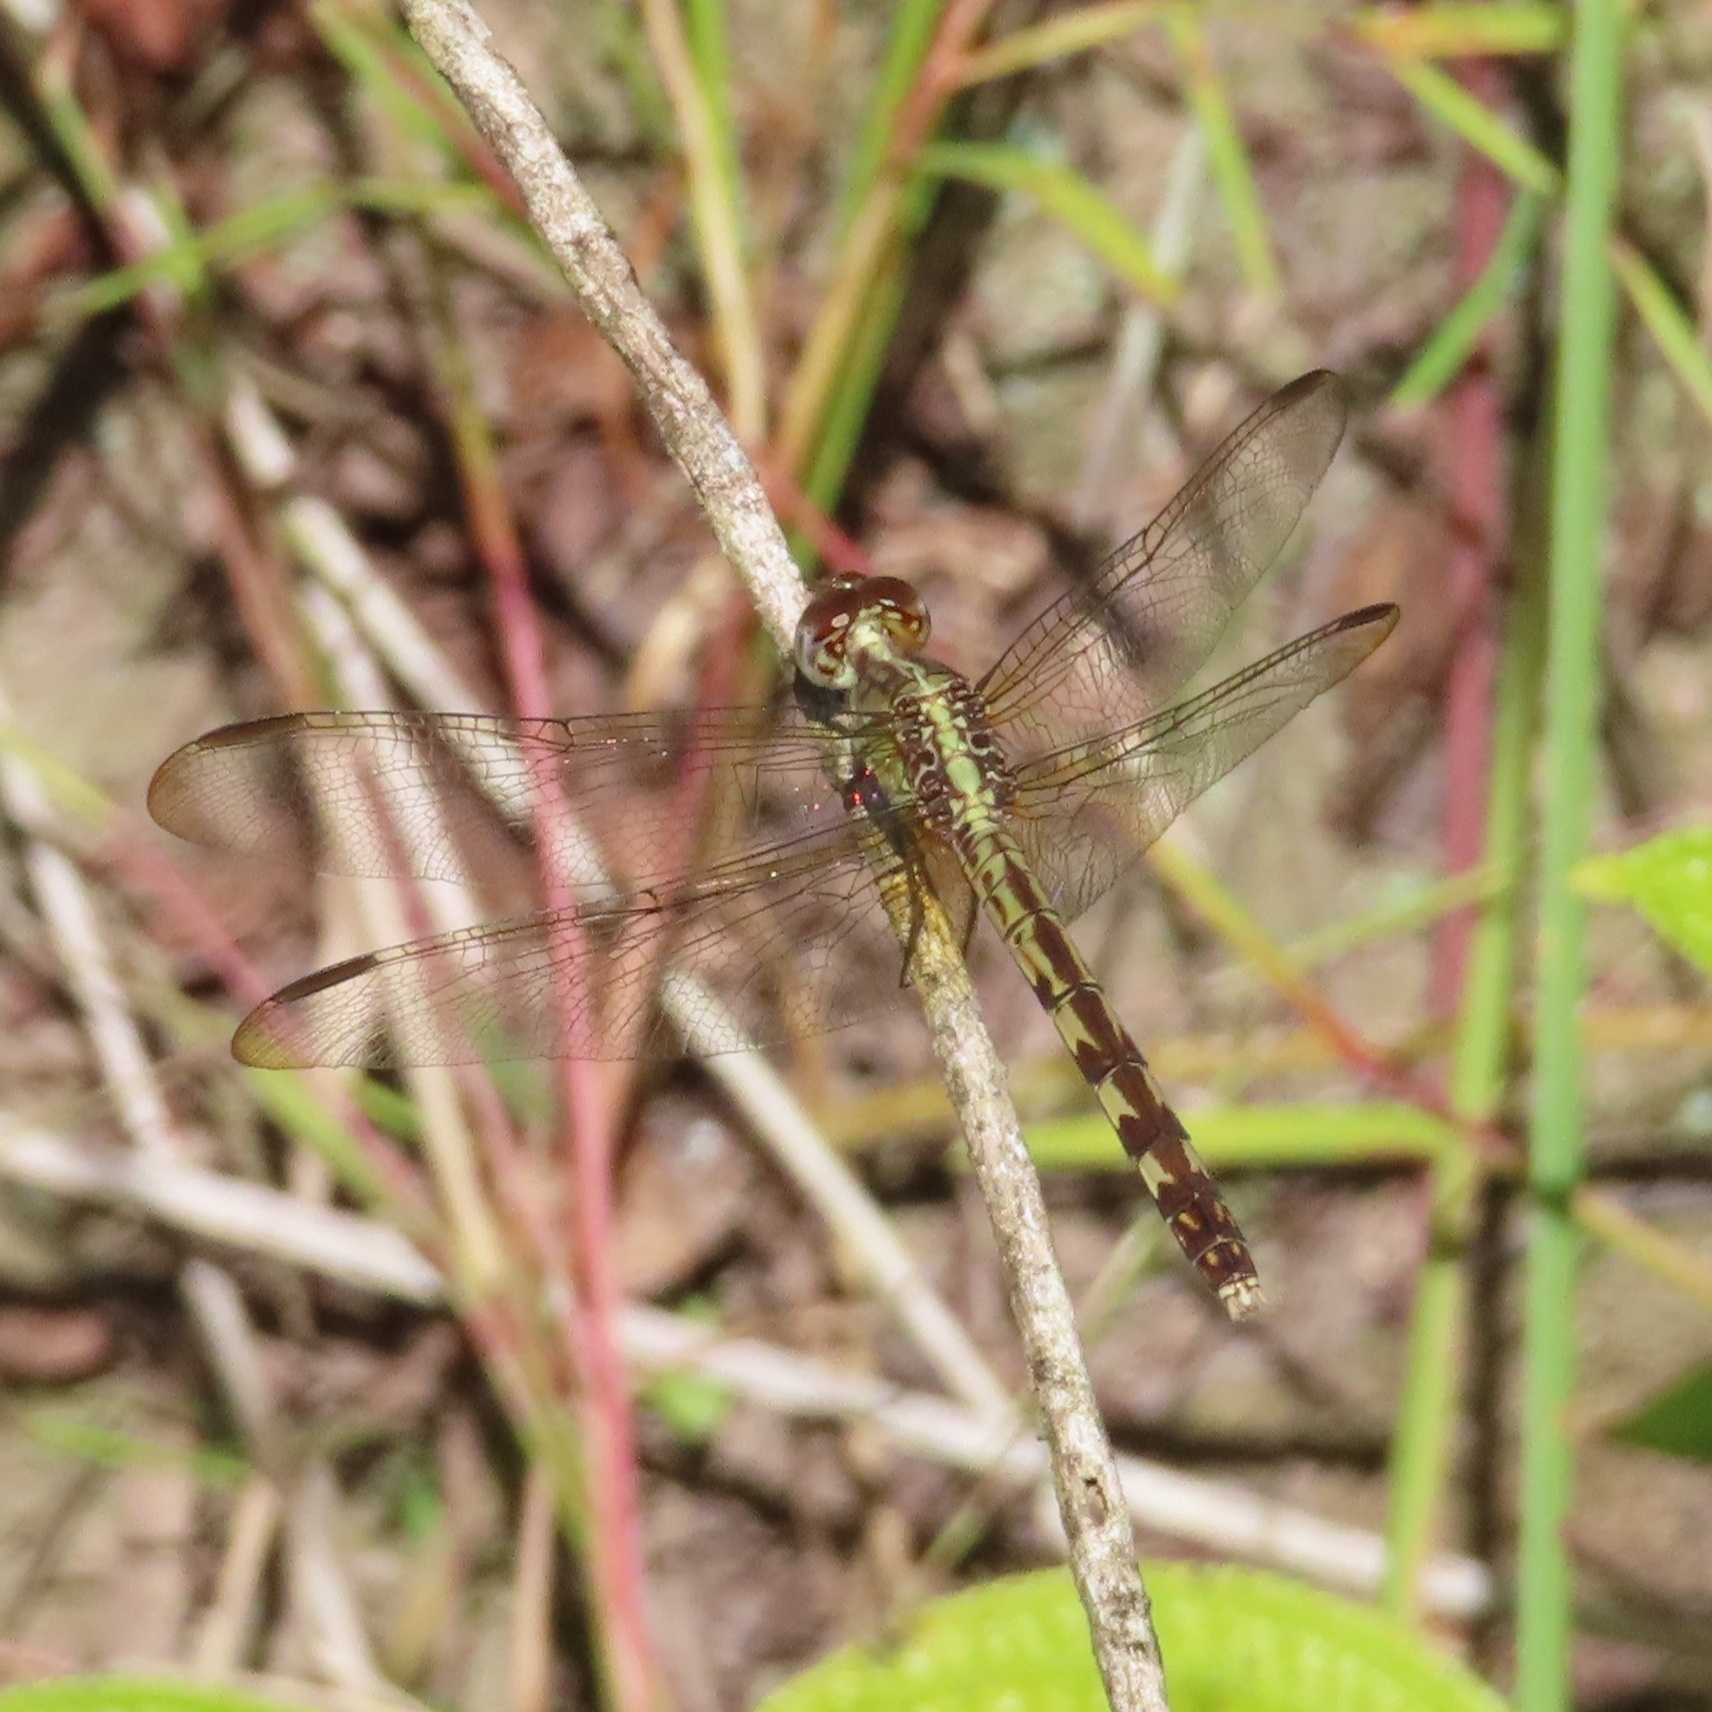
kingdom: Animalia
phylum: Arthropoda
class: Insecta
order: Odonata
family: Libellulidae
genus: Erythrodiplax
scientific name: Erythrodiplax umbrata
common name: Band-winged dragonlet
